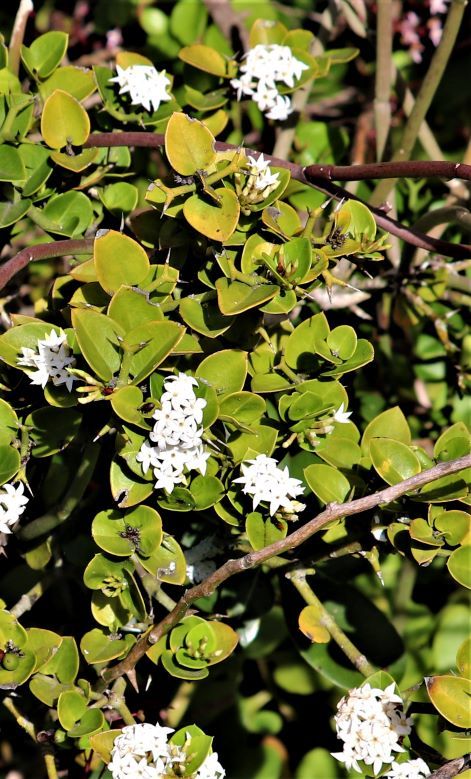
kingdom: Plantae
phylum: Tracheophyta
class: Magnoliopsida
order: Gentianales
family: Apocynaceae
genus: Carissa
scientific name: Carissa bispinosa
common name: Forest num-num
